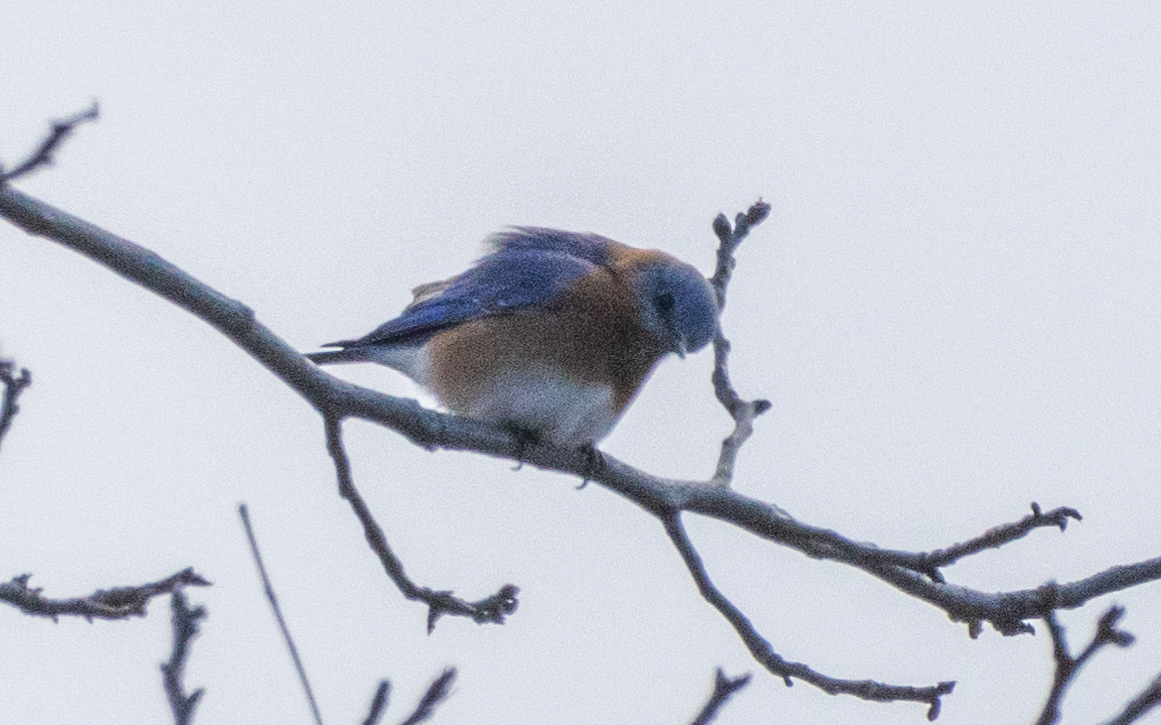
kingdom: Animalia
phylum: Chordata
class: Aves
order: Passeriformes
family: Turdidae
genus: Sialia
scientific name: Sialia sialis
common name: Eastern bluebird
